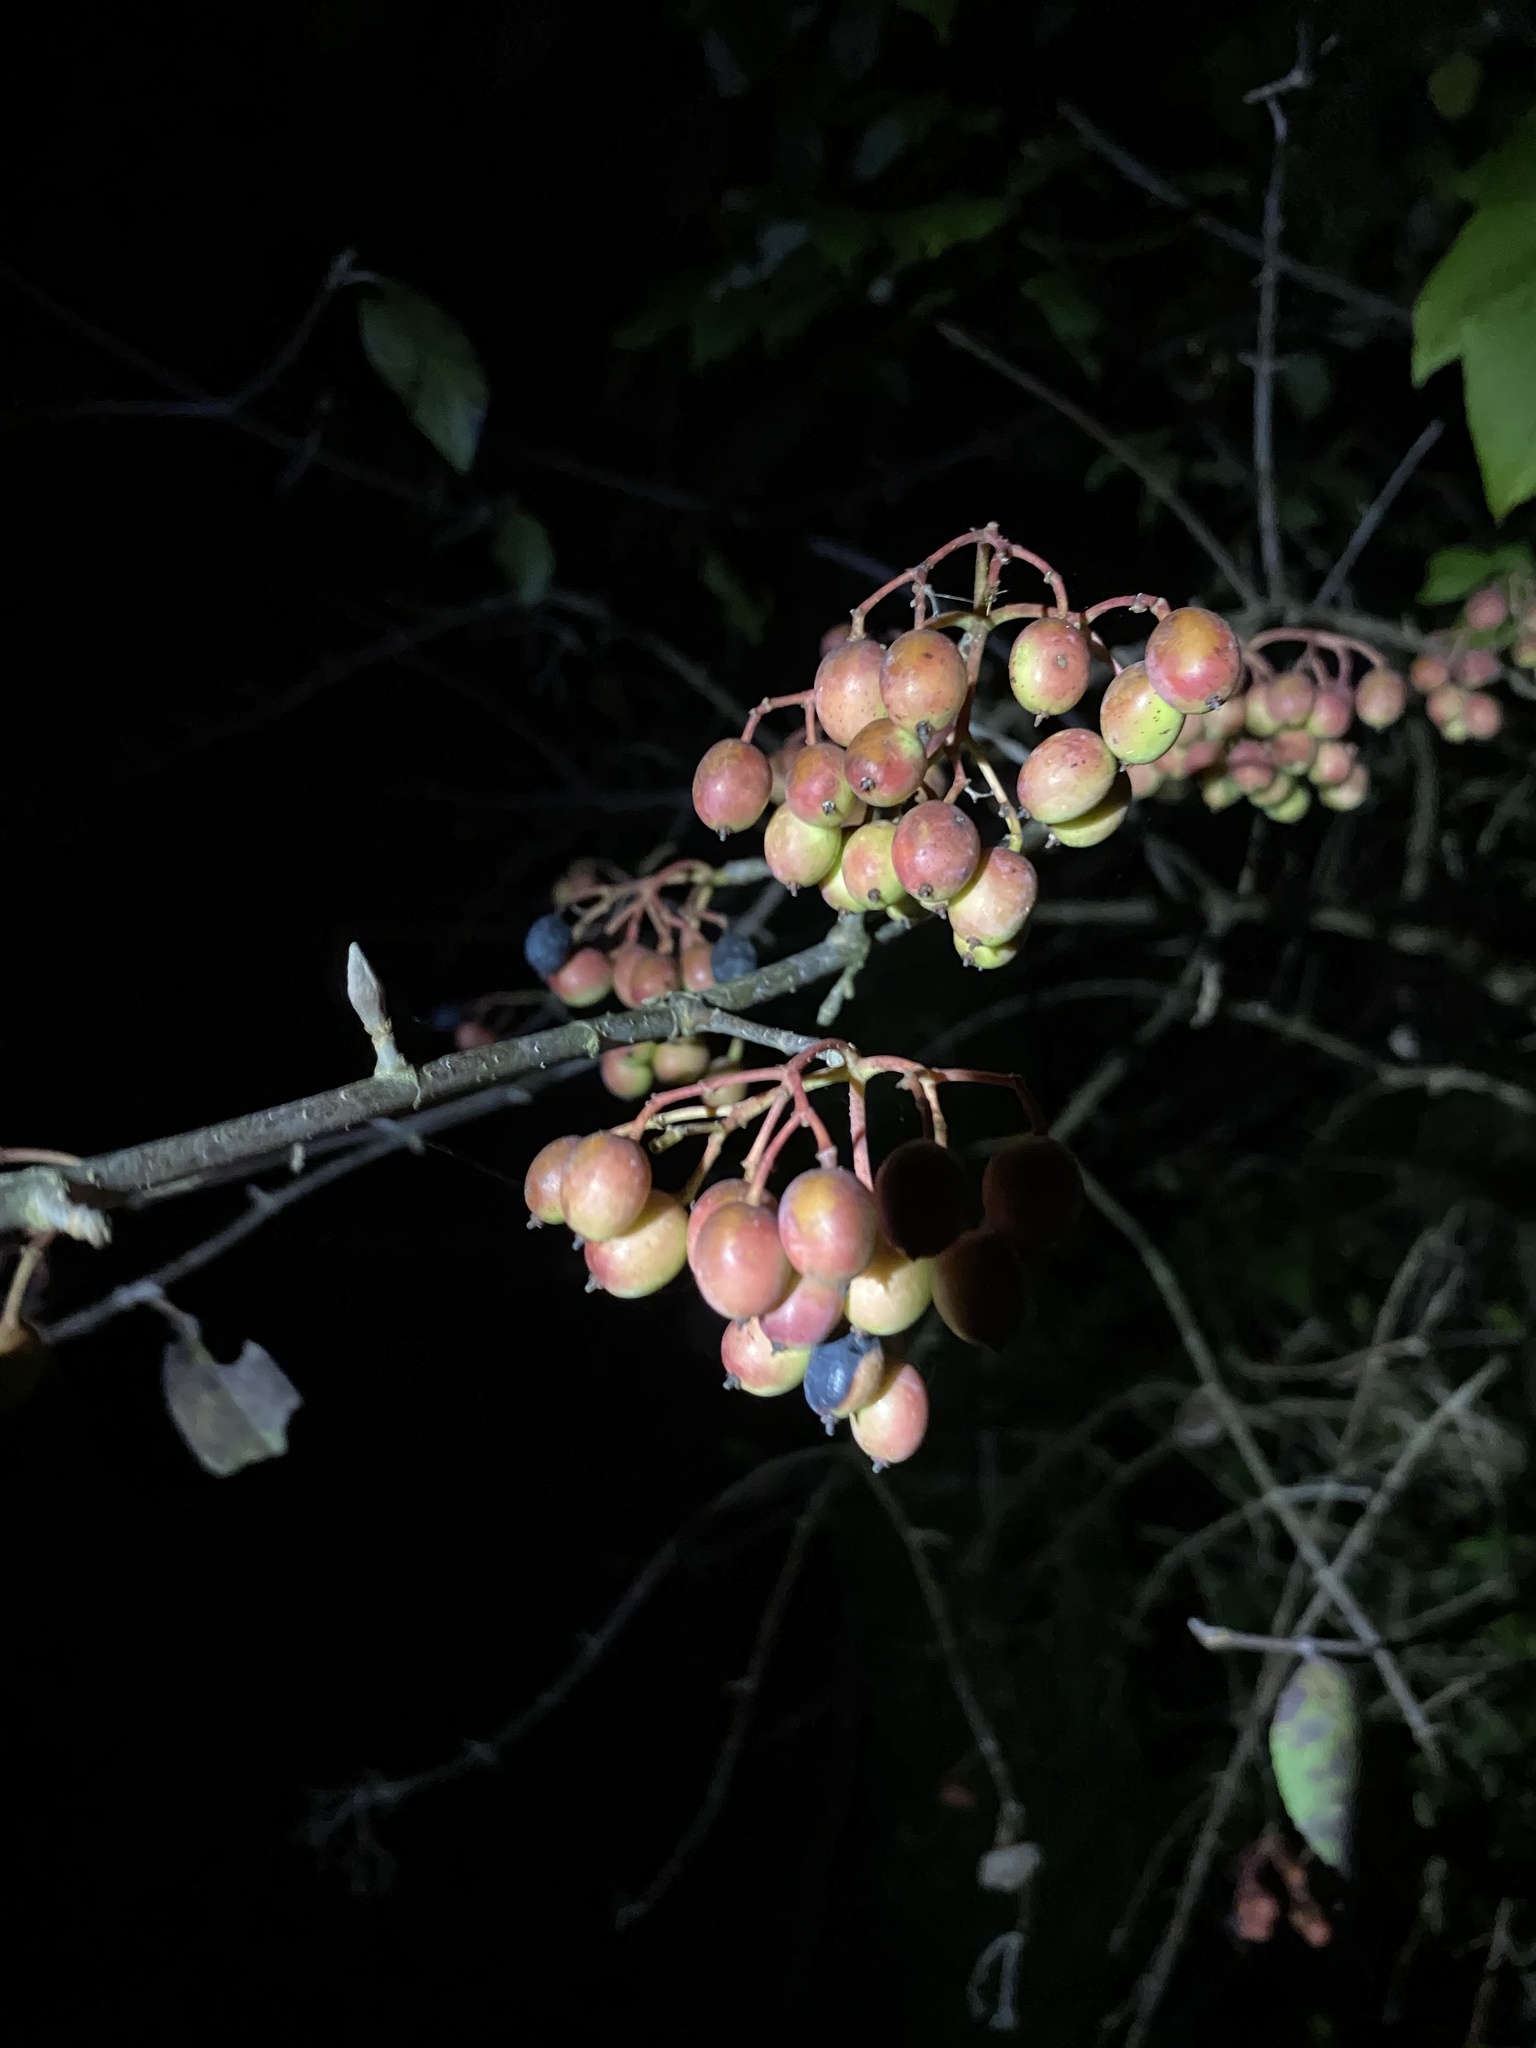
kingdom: Plantae
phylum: Tracheophyta
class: Magnoliopsida
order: Dipsacales
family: Viburnaceae
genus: Viburnum
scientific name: Viburnum prunifolium
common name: Black haw
